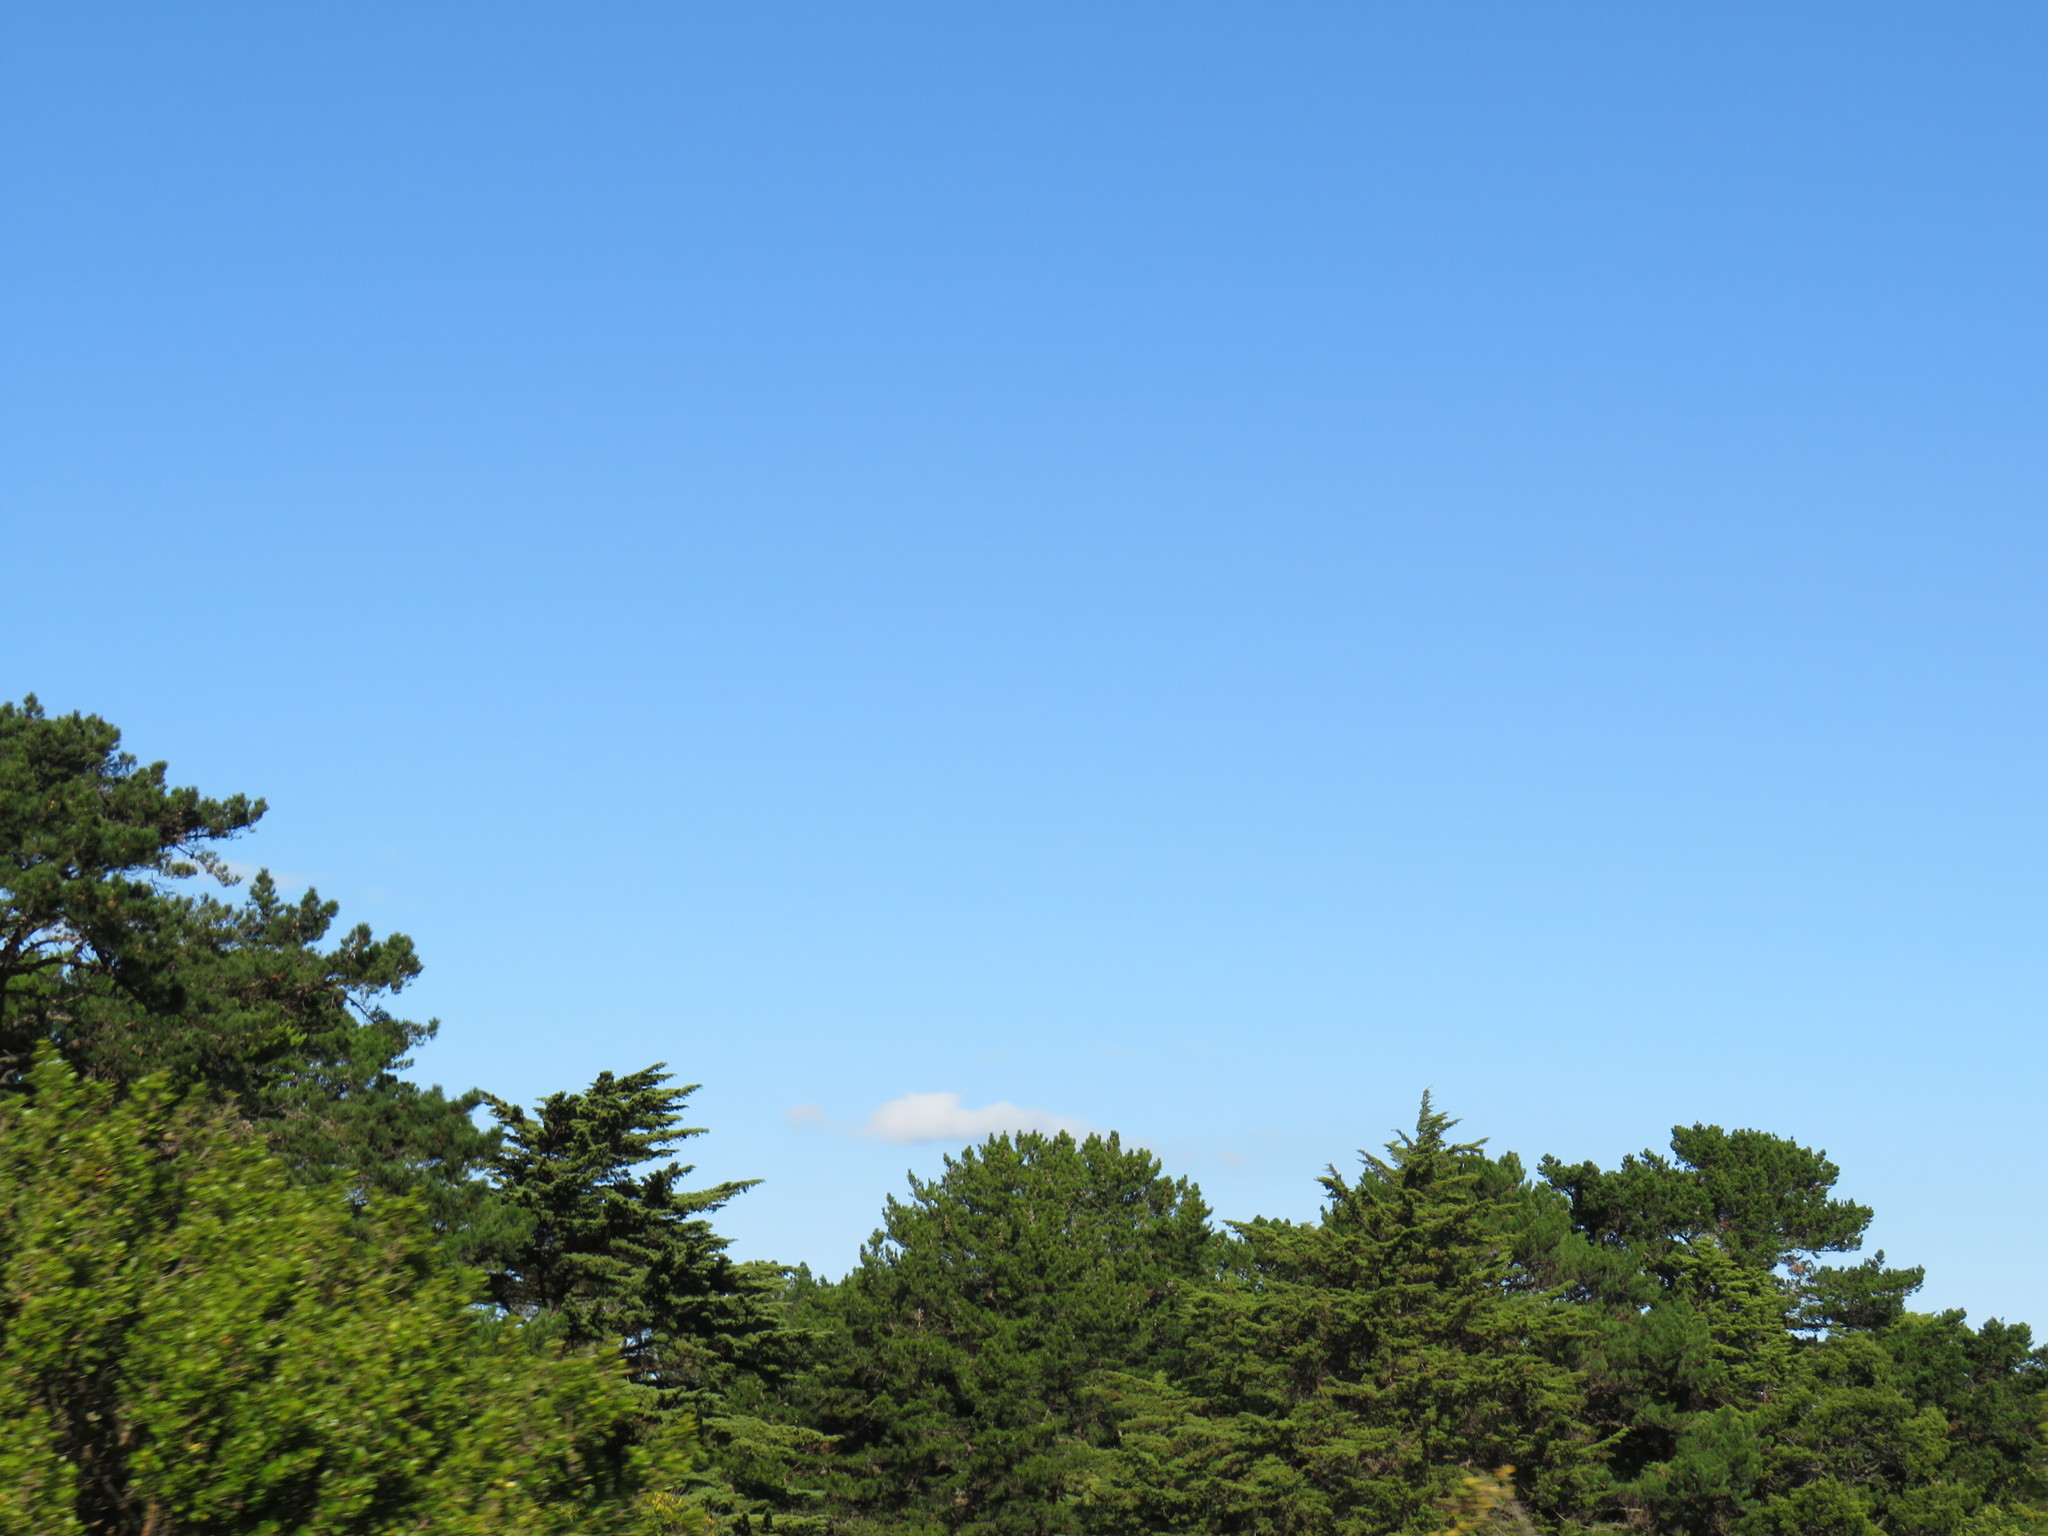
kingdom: Plantae
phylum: Tracheophyta
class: Pinopsida
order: Pinales
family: Pinaceae
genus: Pinus
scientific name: Pinus radiata
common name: Monterey pine
